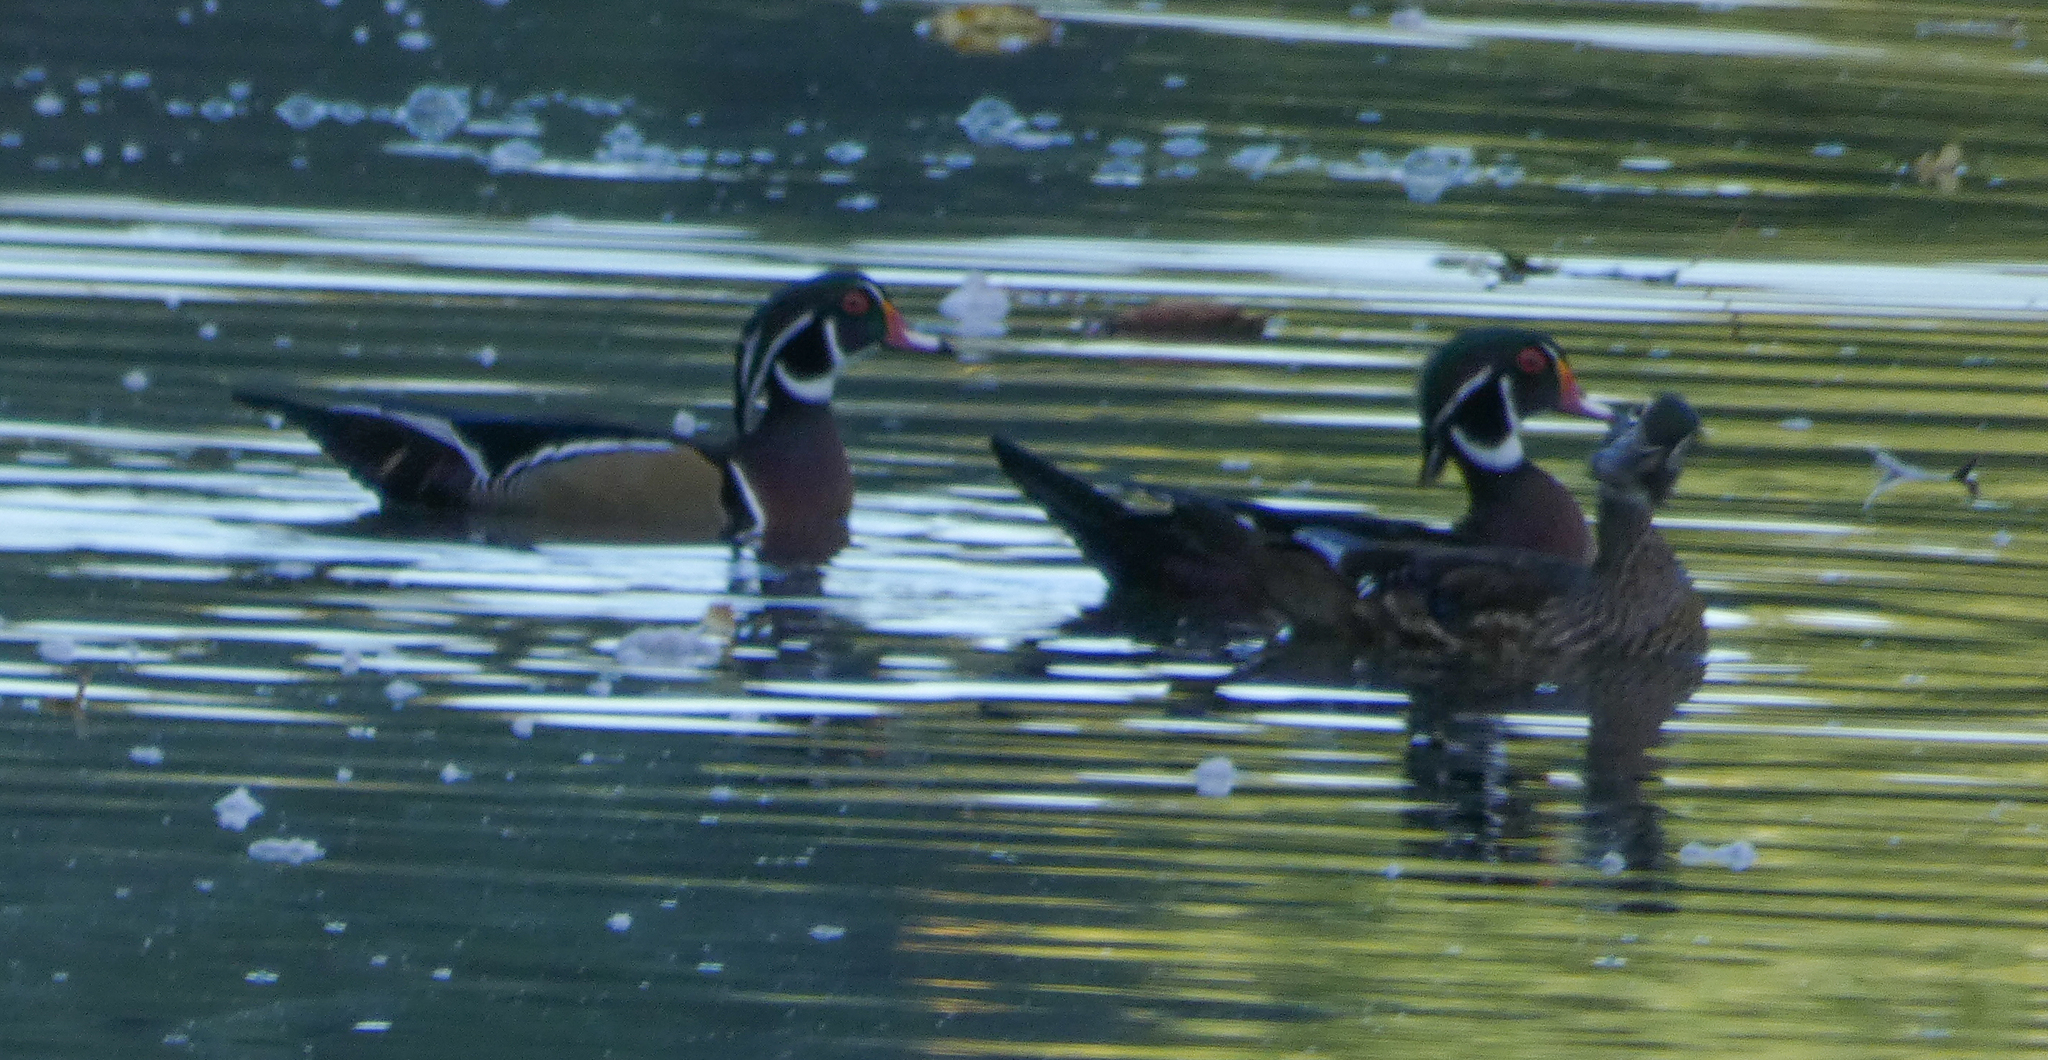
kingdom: Animalia
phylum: Chordata
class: Aves
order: Anseriformes
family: Anatidae
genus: Aix
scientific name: Aix sponsa
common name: Wood duck
